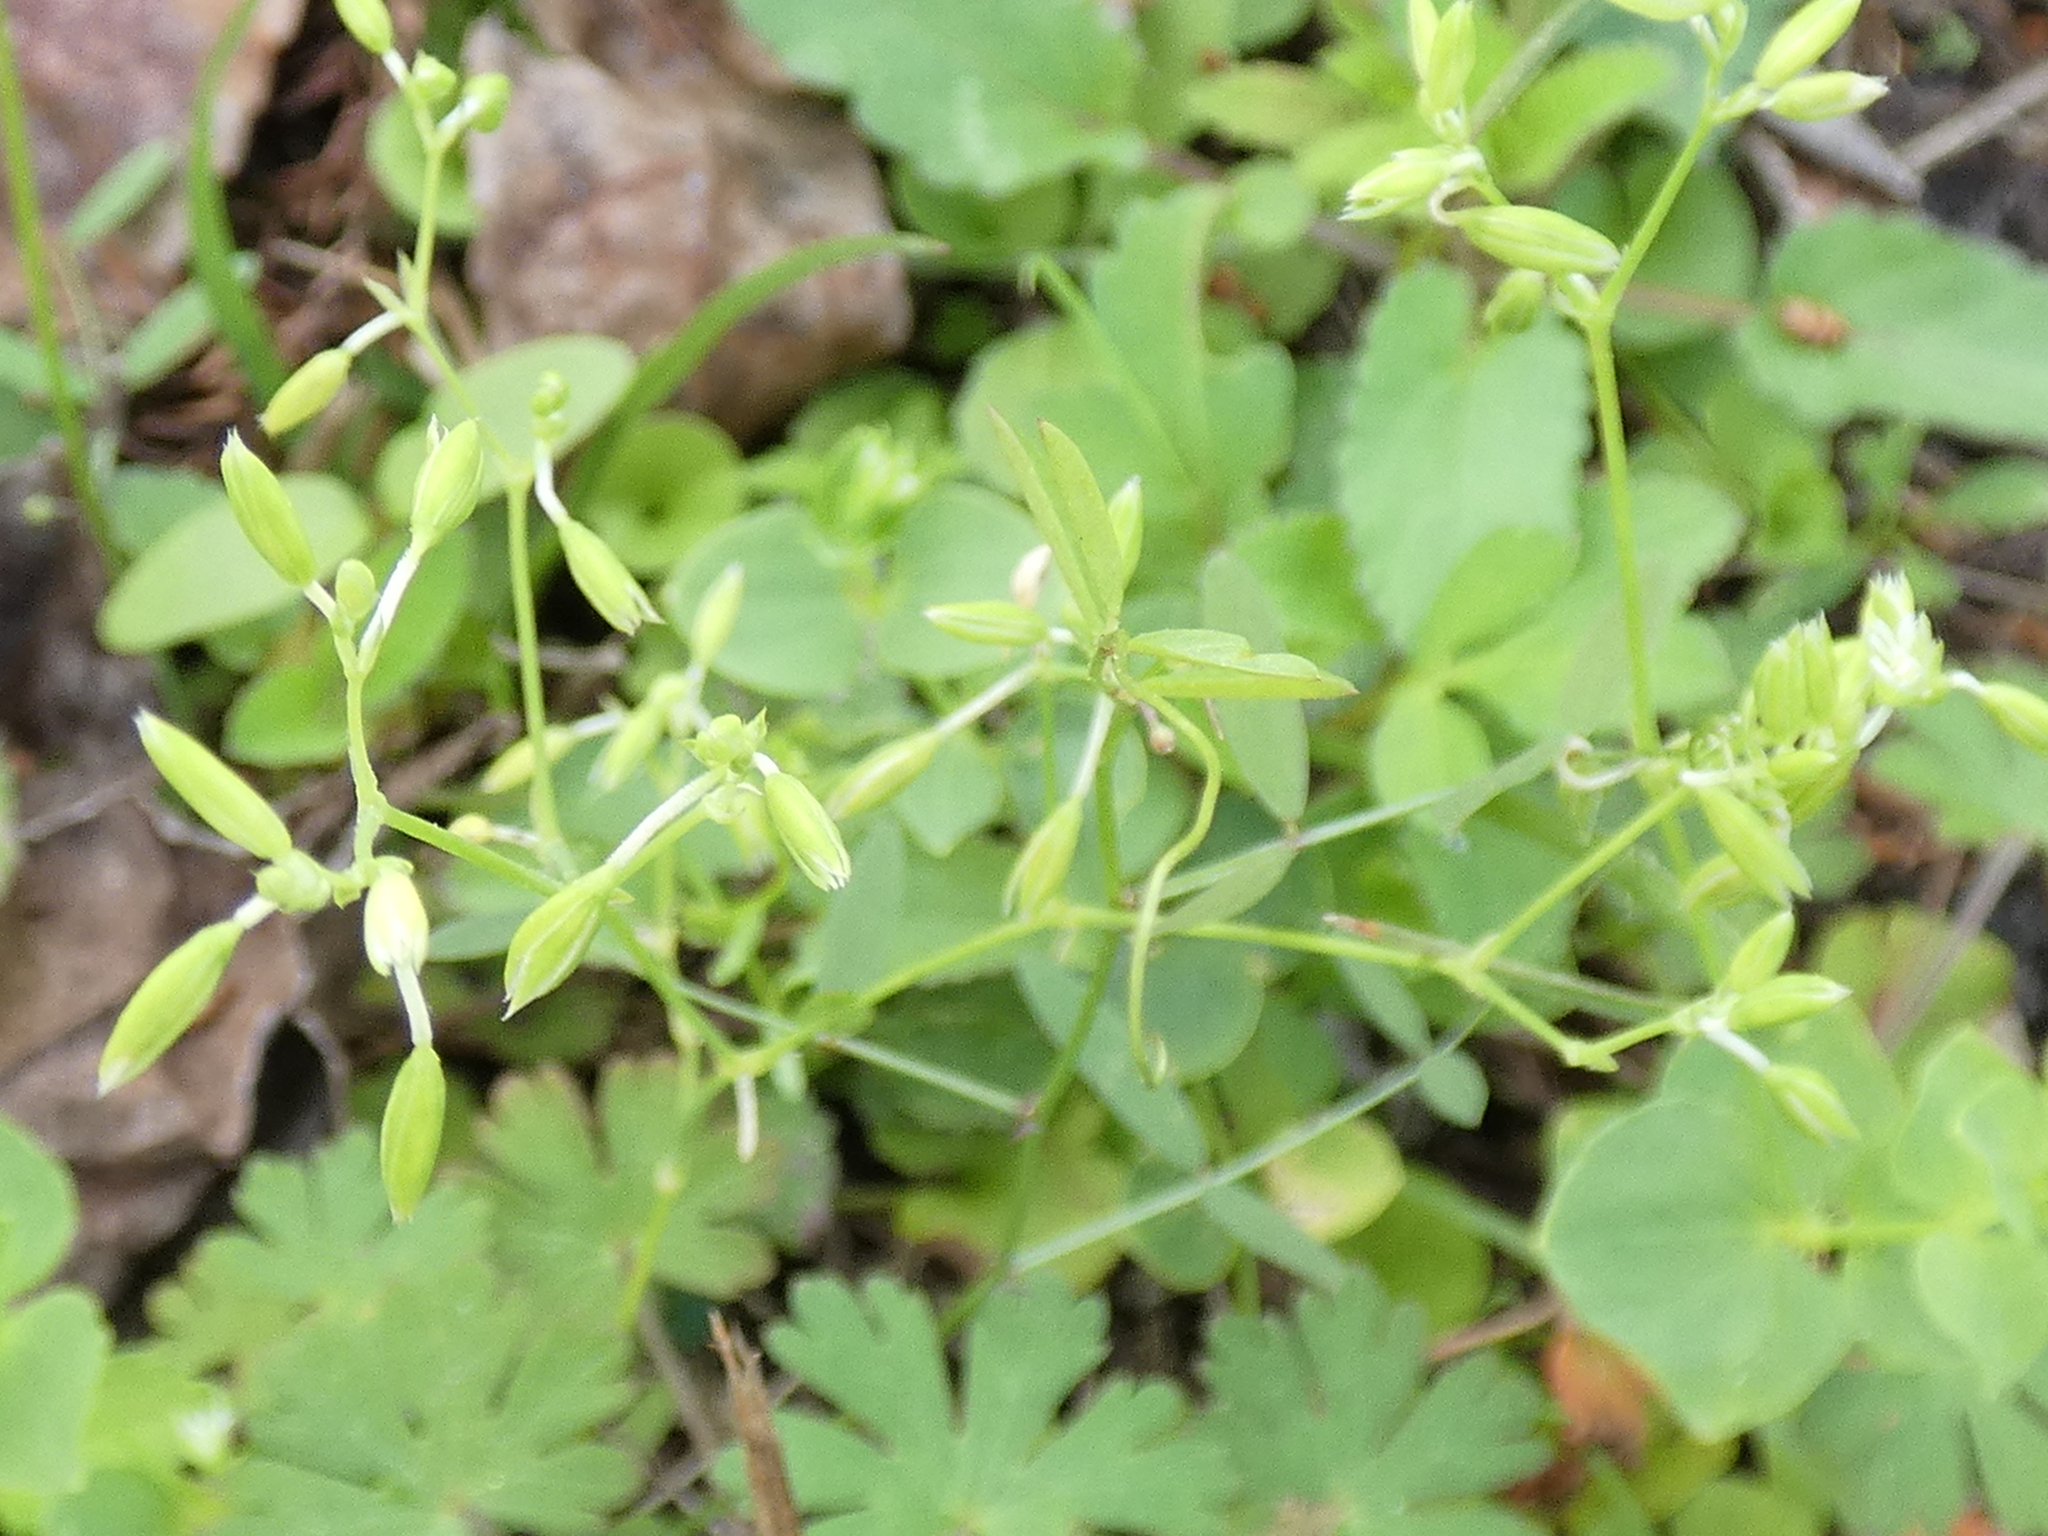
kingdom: Plantae
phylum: Tracheophyta
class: Magnoliopsida
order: Caryophyllales
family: Caryophyllaceae
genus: Drymaria
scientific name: Drymaria cordata
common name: Whitesnow
